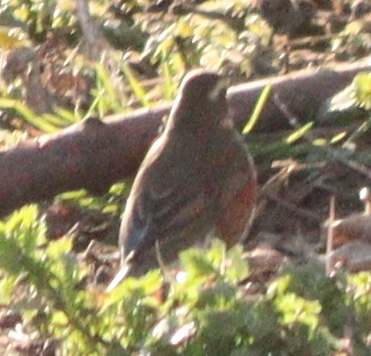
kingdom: Animalia
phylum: Chordata
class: Aves
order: Passeriformes
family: Turdidae
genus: Turdus
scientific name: Turdus iliacus
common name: Redwing
